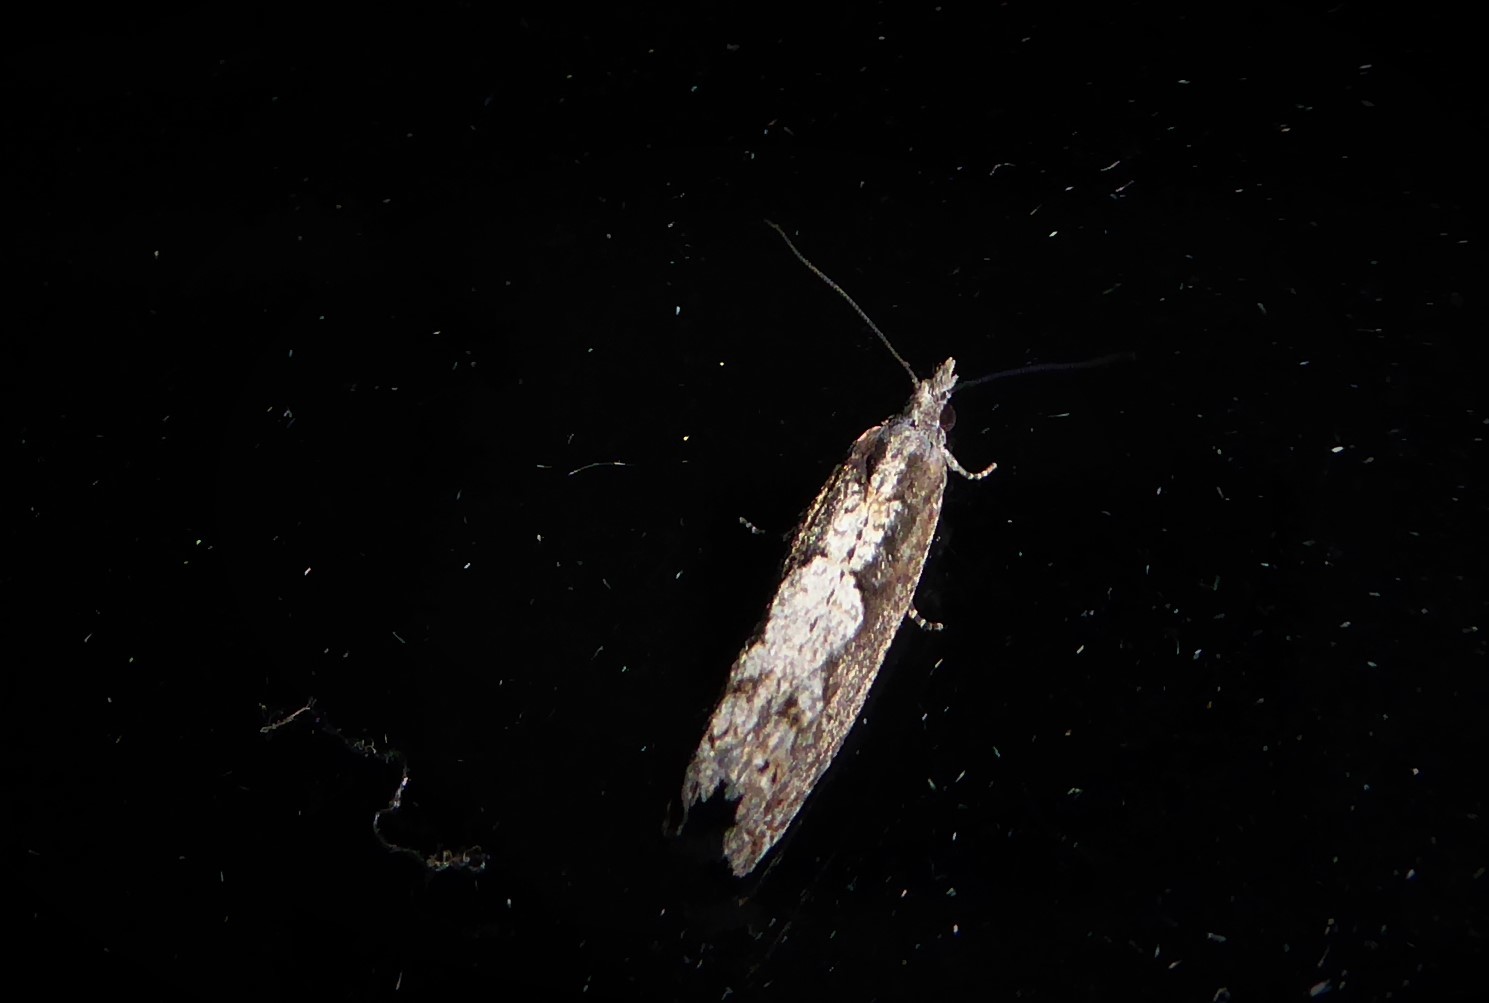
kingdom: Animalia
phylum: Arthropoda
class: Insecta
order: Lepidoptera
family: Tortricidae
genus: Strepsicrates
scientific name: Strepsicrates macropetana
